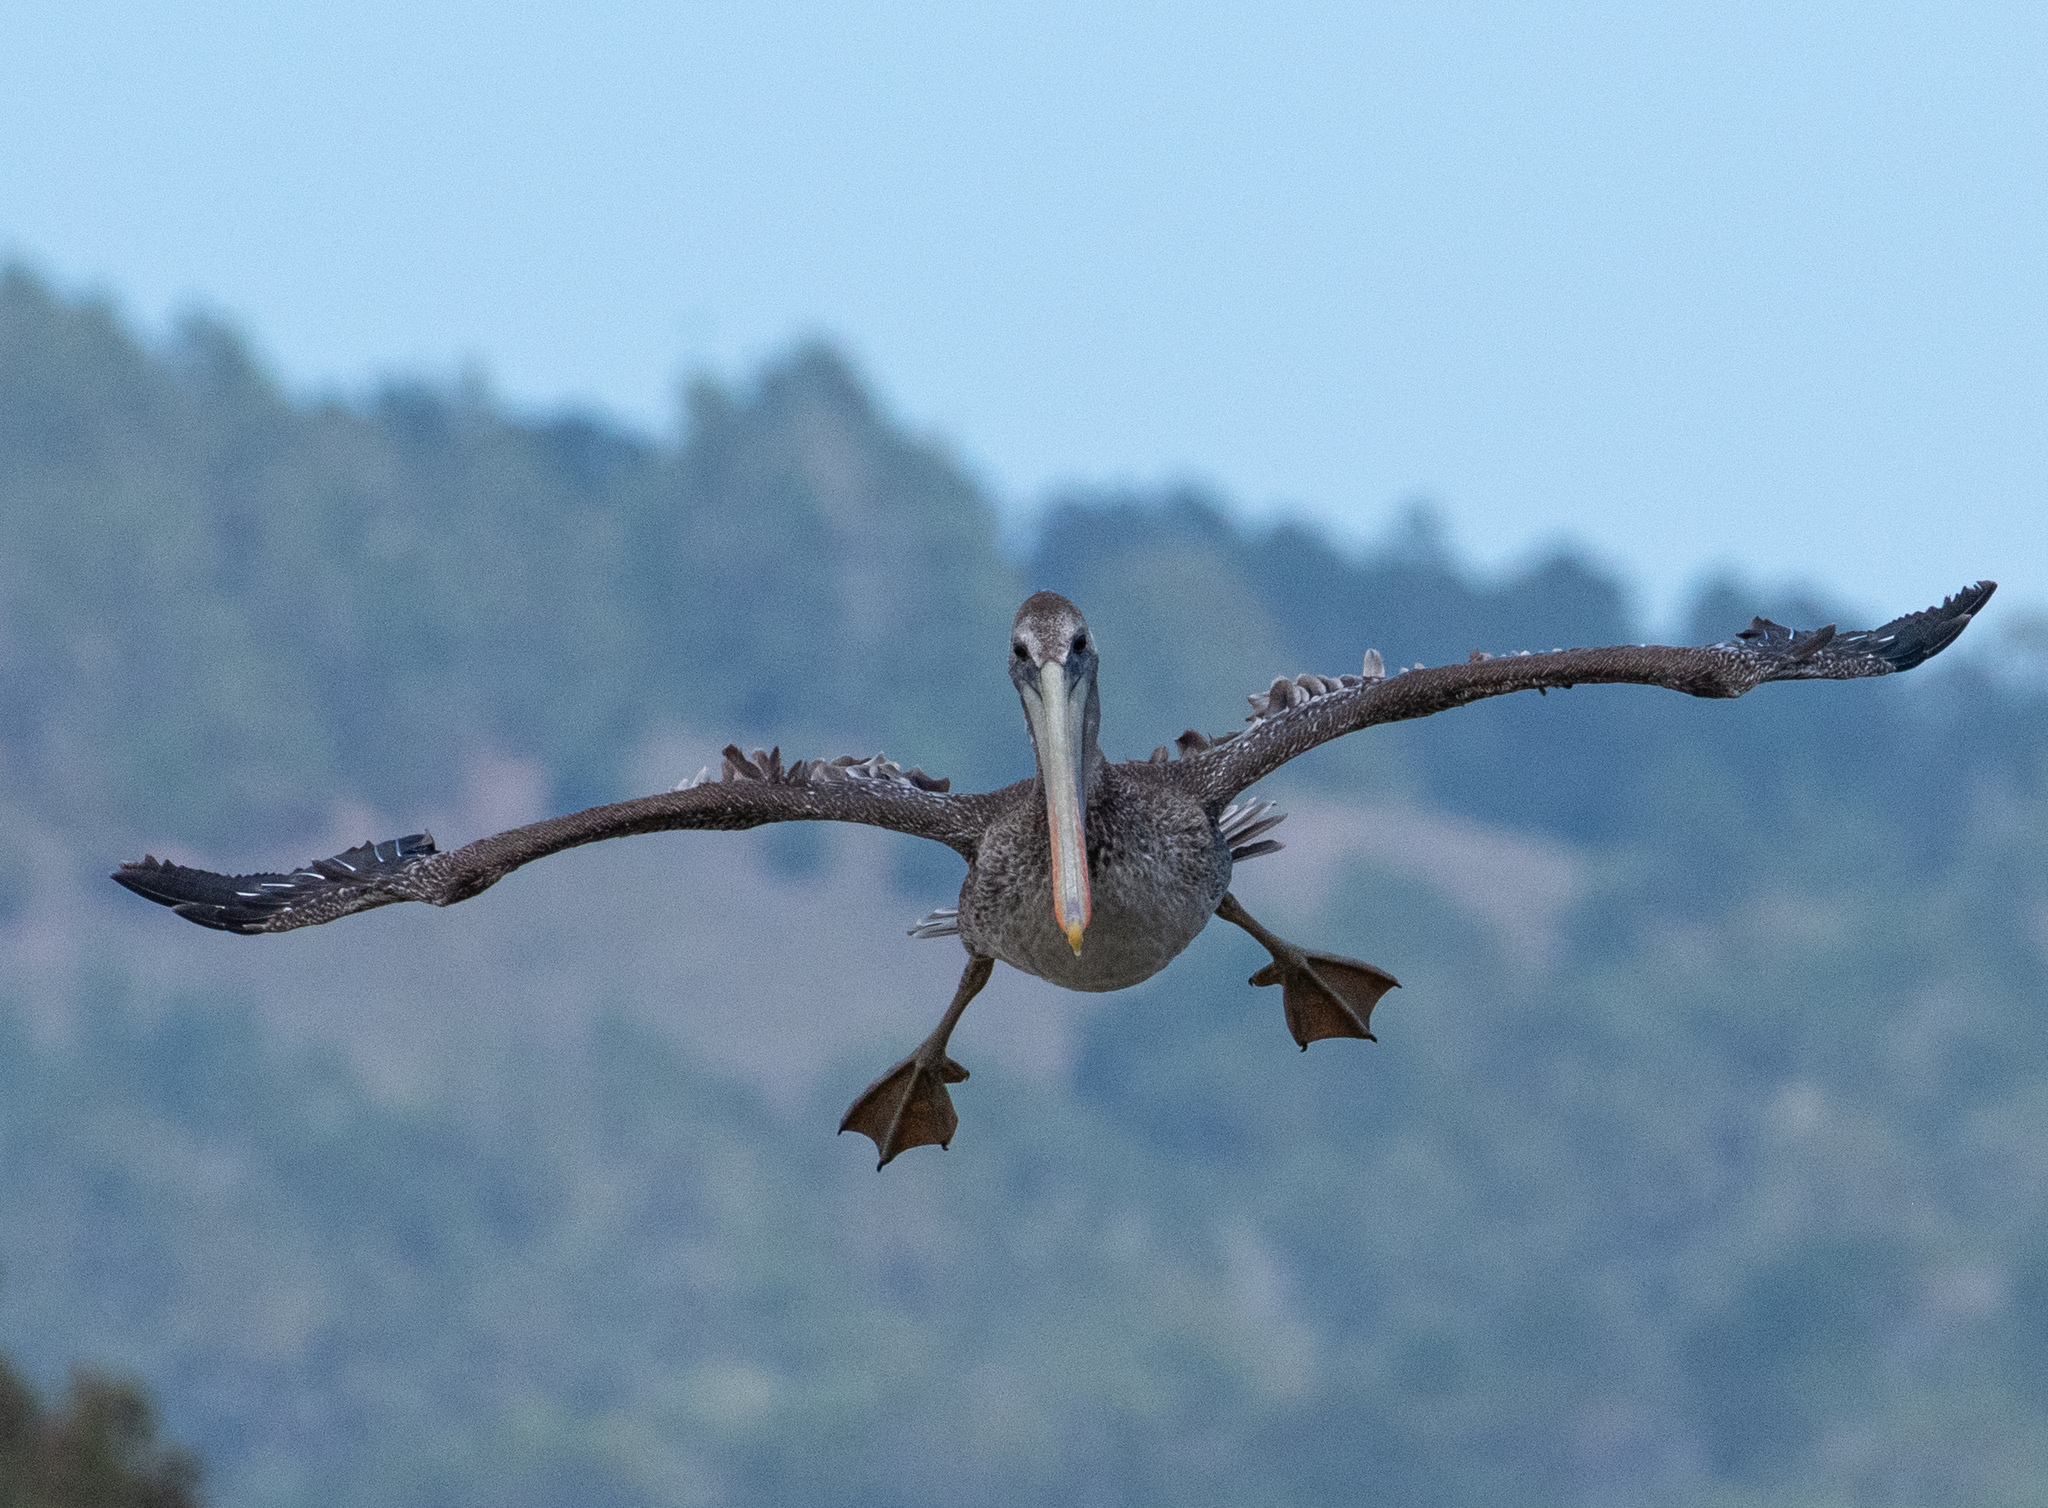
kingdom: Animalia
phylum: Chordata
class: Aves
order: Pelecaniformes
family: Pelecanidae
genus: Pelecanus
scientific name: Pelecanus occidentalis
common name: Brown pelican
